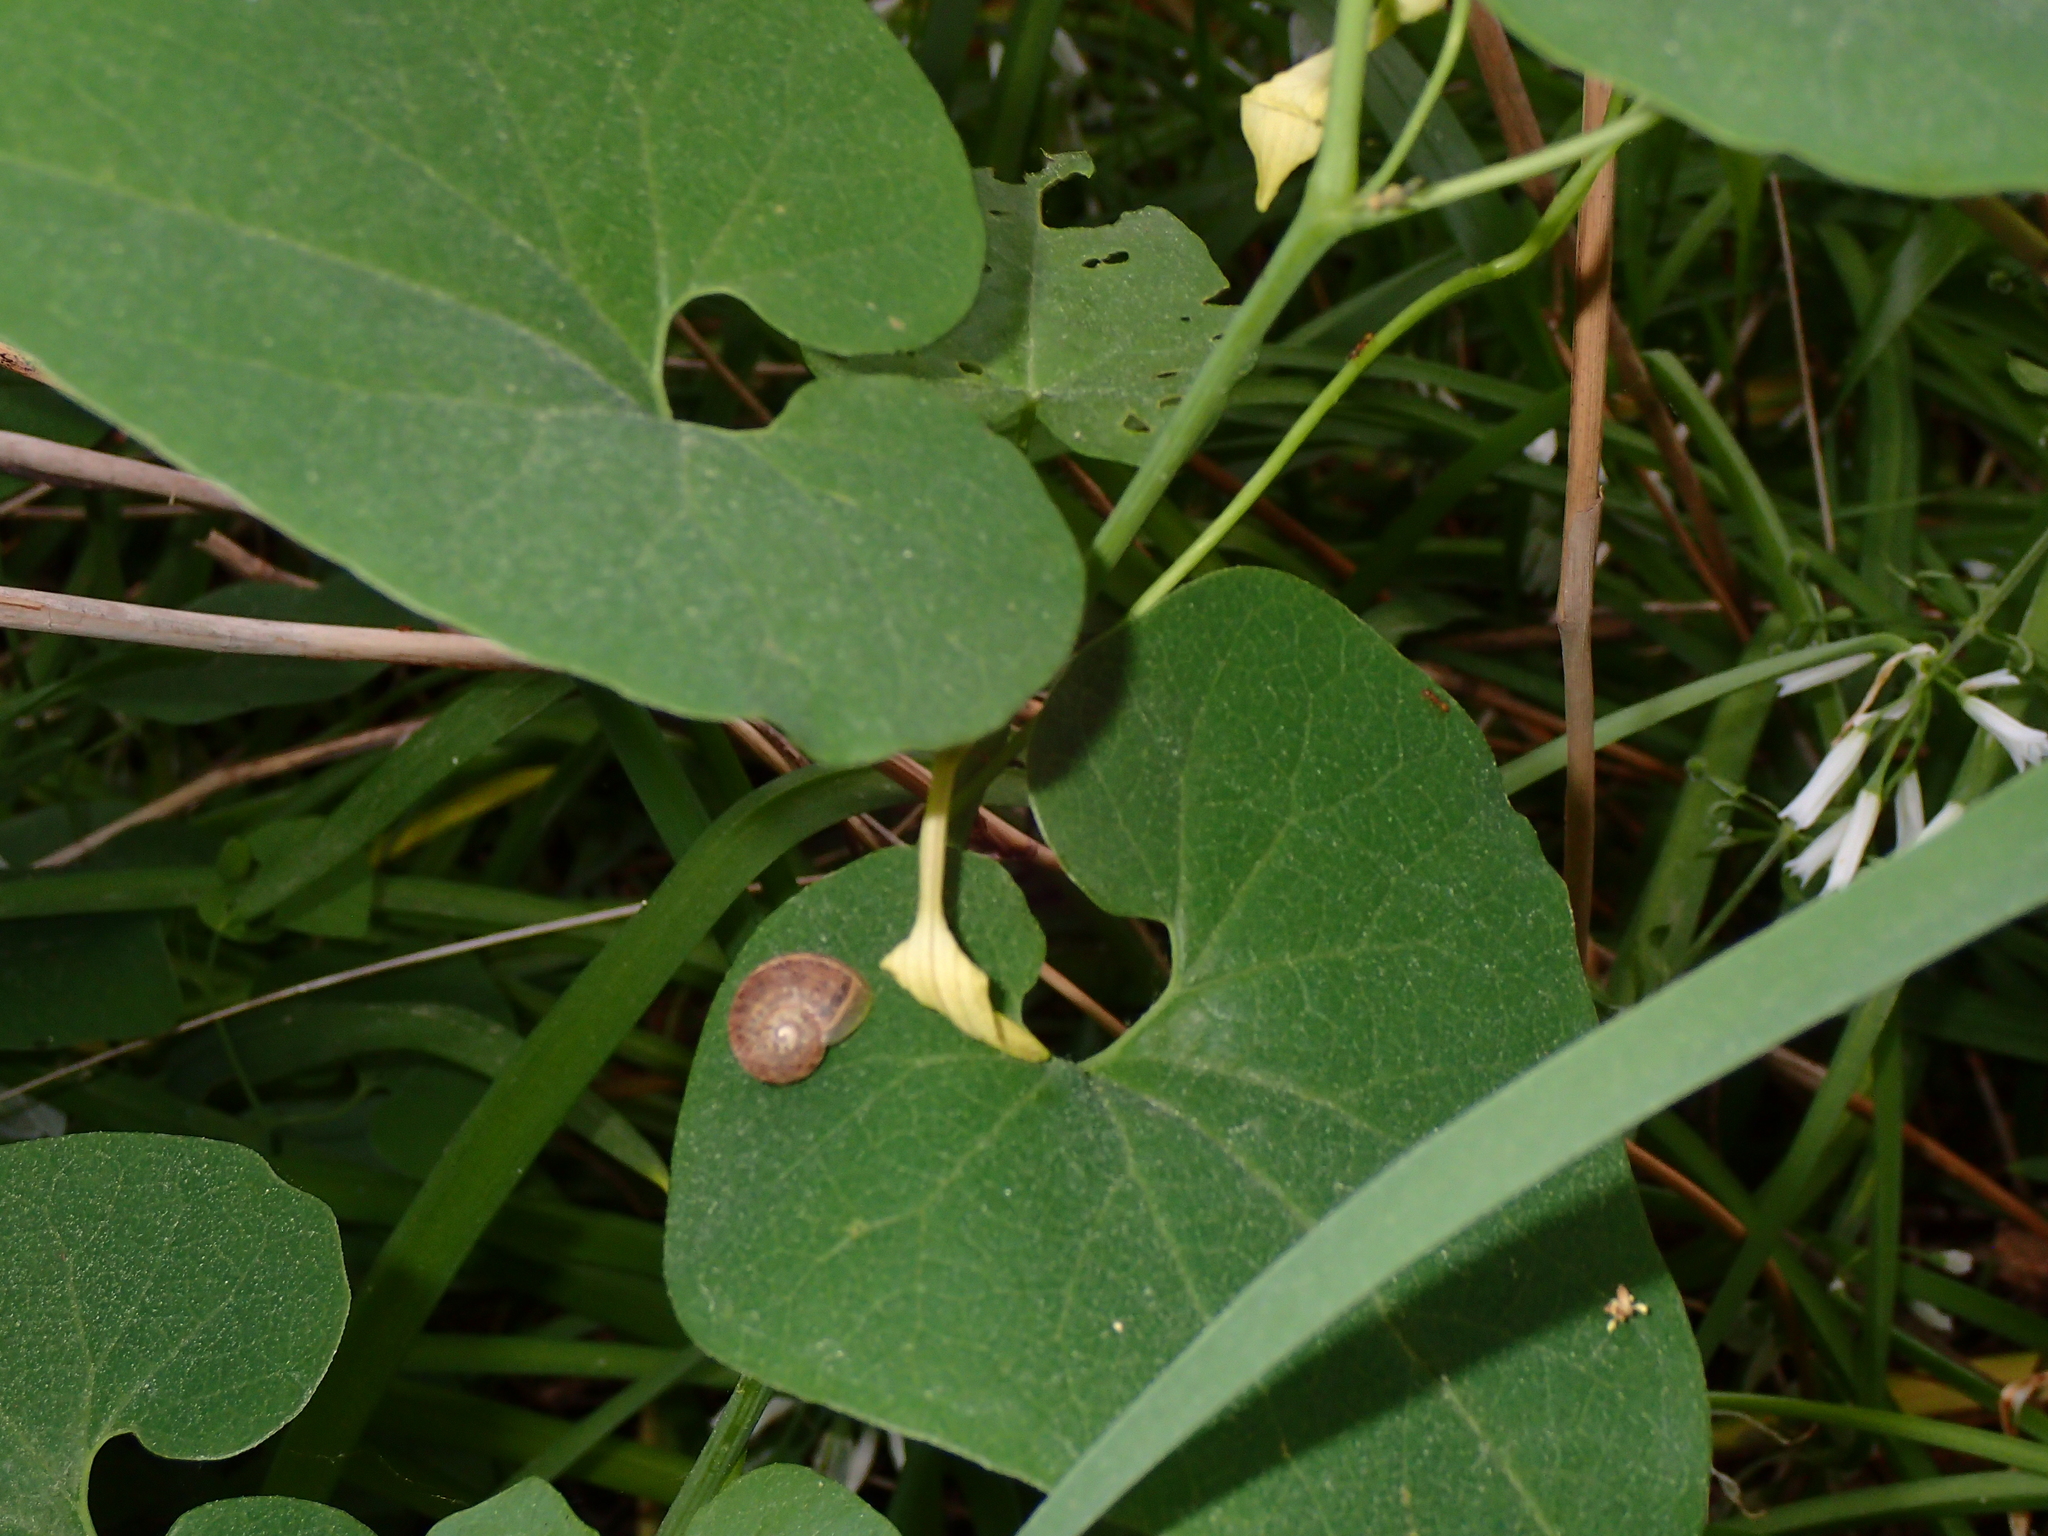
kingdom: Plantae
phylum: Tracheophyta
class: Magnoliopsida
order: Piperales
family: Aristolochiaceae
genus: Aristolochia
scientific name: Aristolochia clematitis
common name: Birthwort
